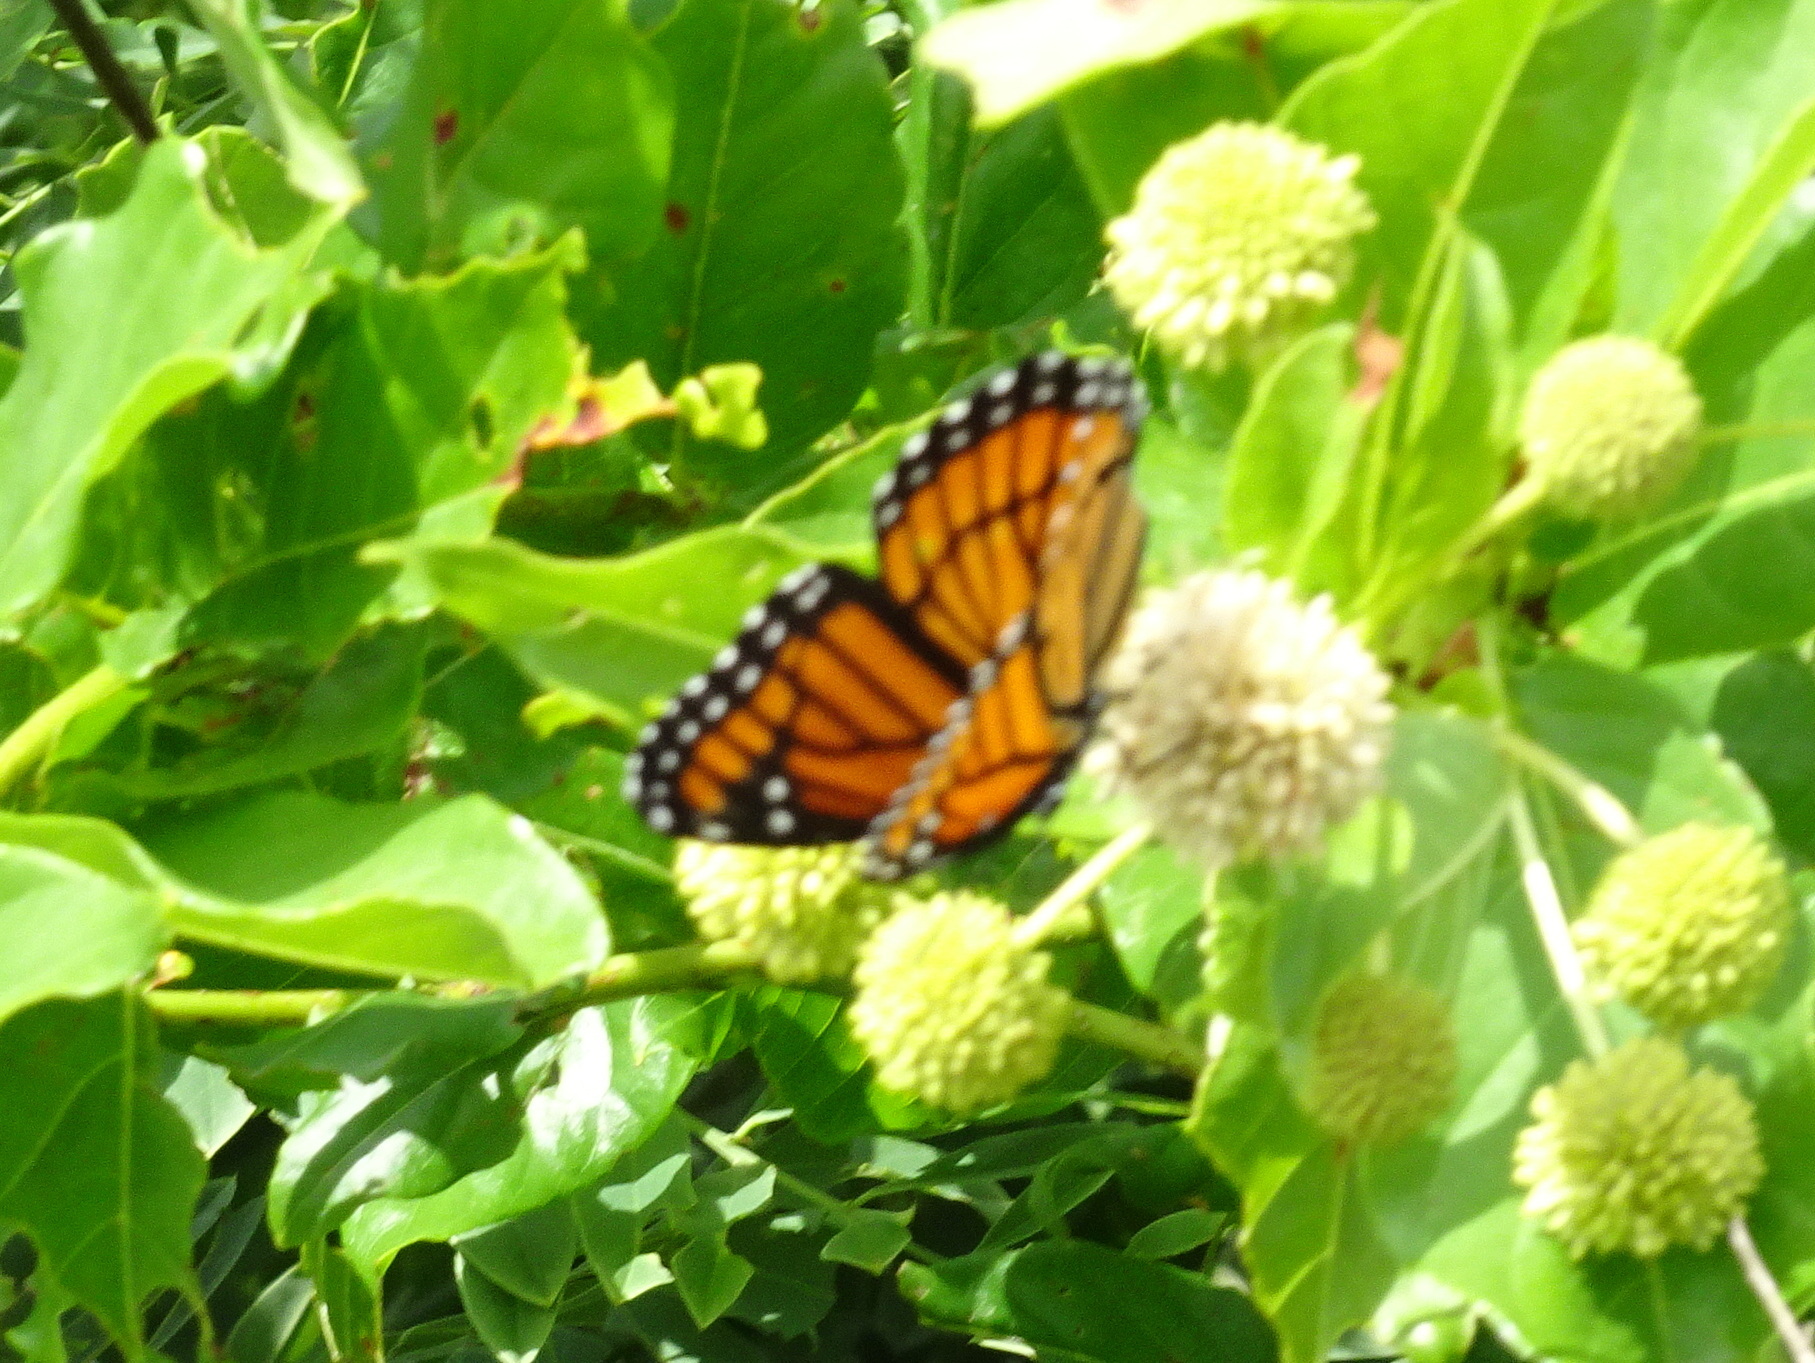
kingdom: Animalia
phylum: Arthropoda
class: Insecta
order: Lepidoptera
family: Nymphalidae
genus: Limenitis
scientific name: Limenitis archippus
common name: Viceroy
